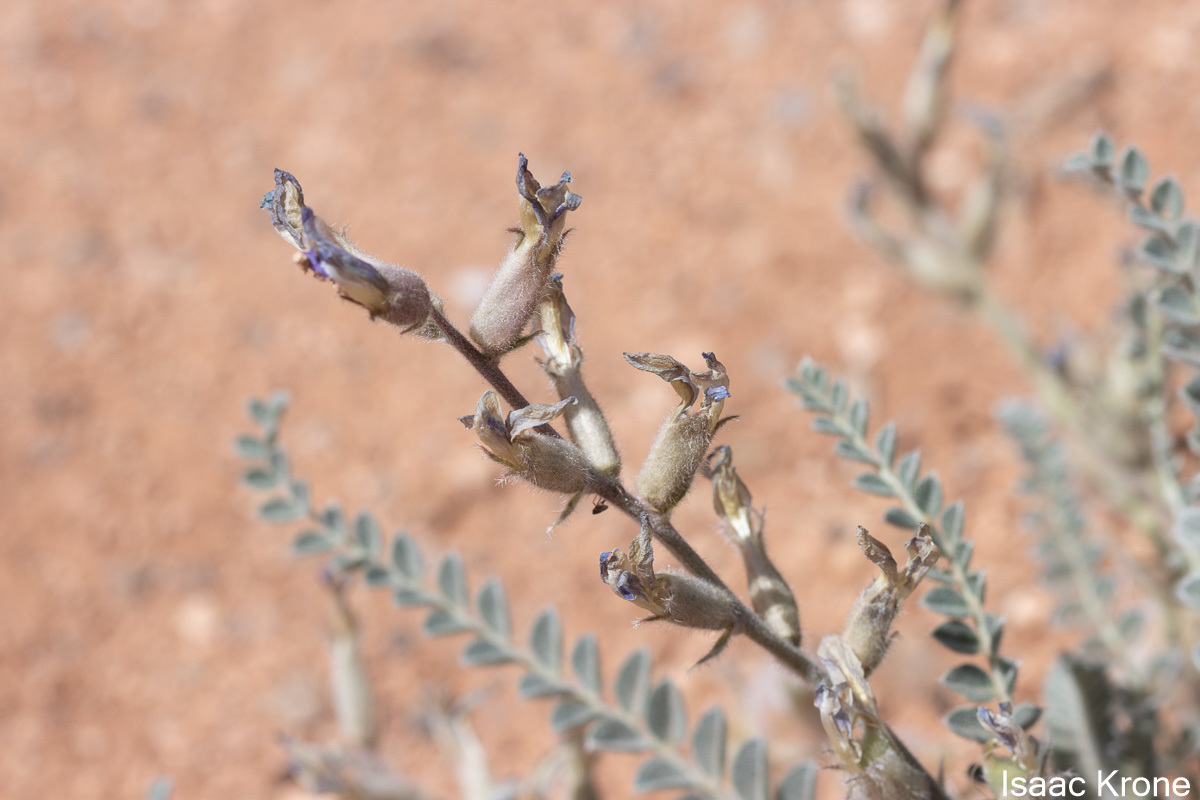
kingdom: Plantae
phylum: Tracheophyta
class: Magnoliopsida
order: Fabales
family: Fabaceae
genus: Astragalus
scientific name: Astragalus mollissimus
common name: Woolly locoweed
